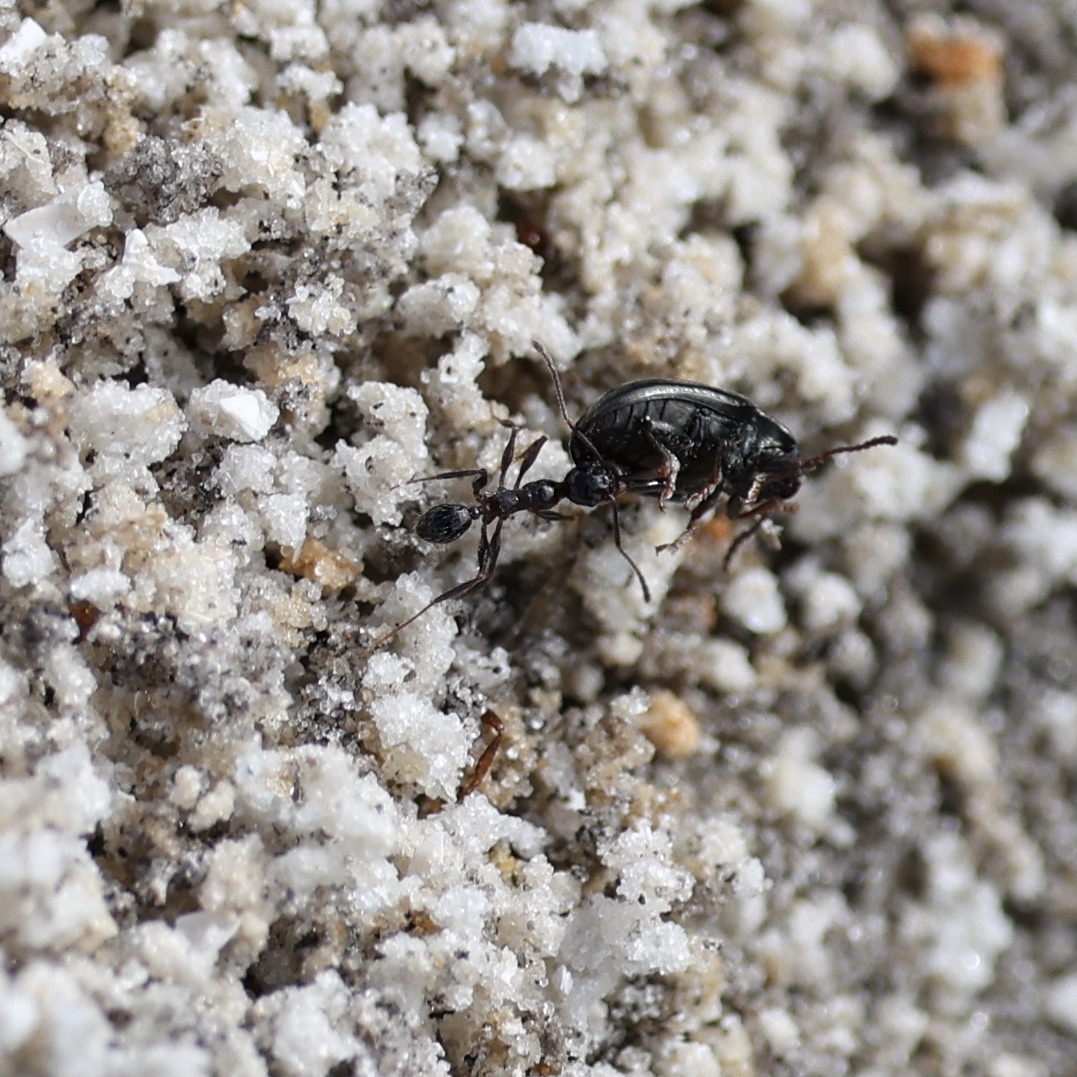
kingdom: Animalia
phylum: Arthropoda
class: Insecta
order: Hymenoptera
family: Formicidae
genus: Pheidole
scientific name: Pheidole obscurithorax
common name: Obscure big-headed ant
